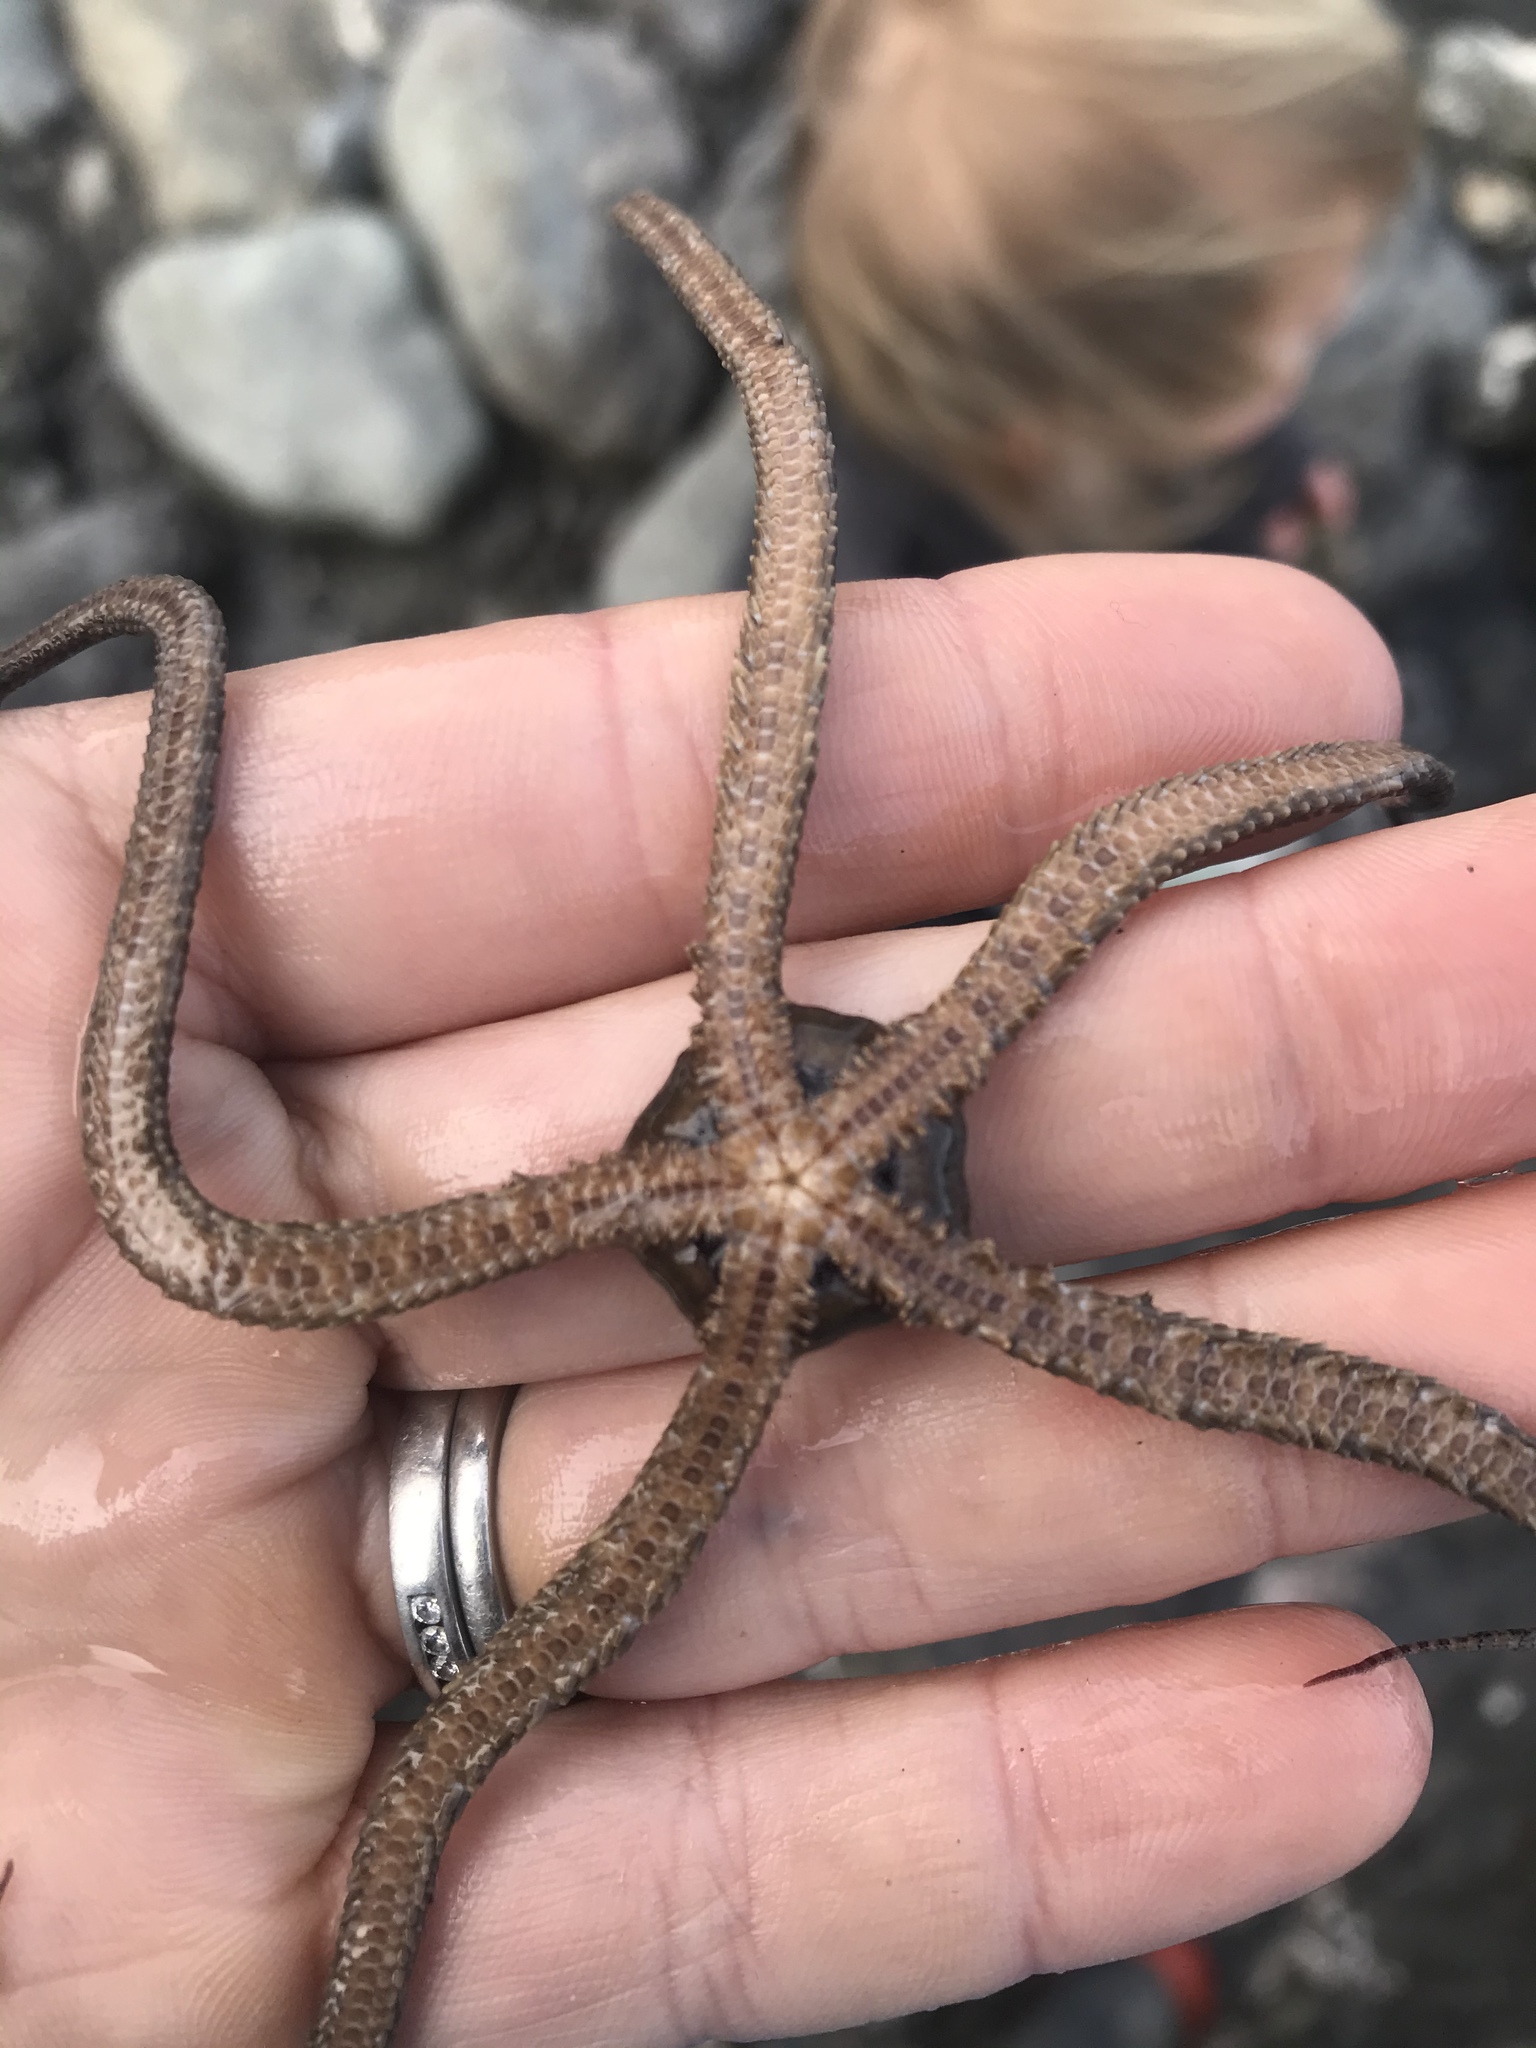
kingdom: Animalia
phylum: Echinodermata
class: Ophiuroidea
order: Amphilepidida
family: Ophionereididae
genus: Ophionereis
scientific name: Ophionereis fasciata
